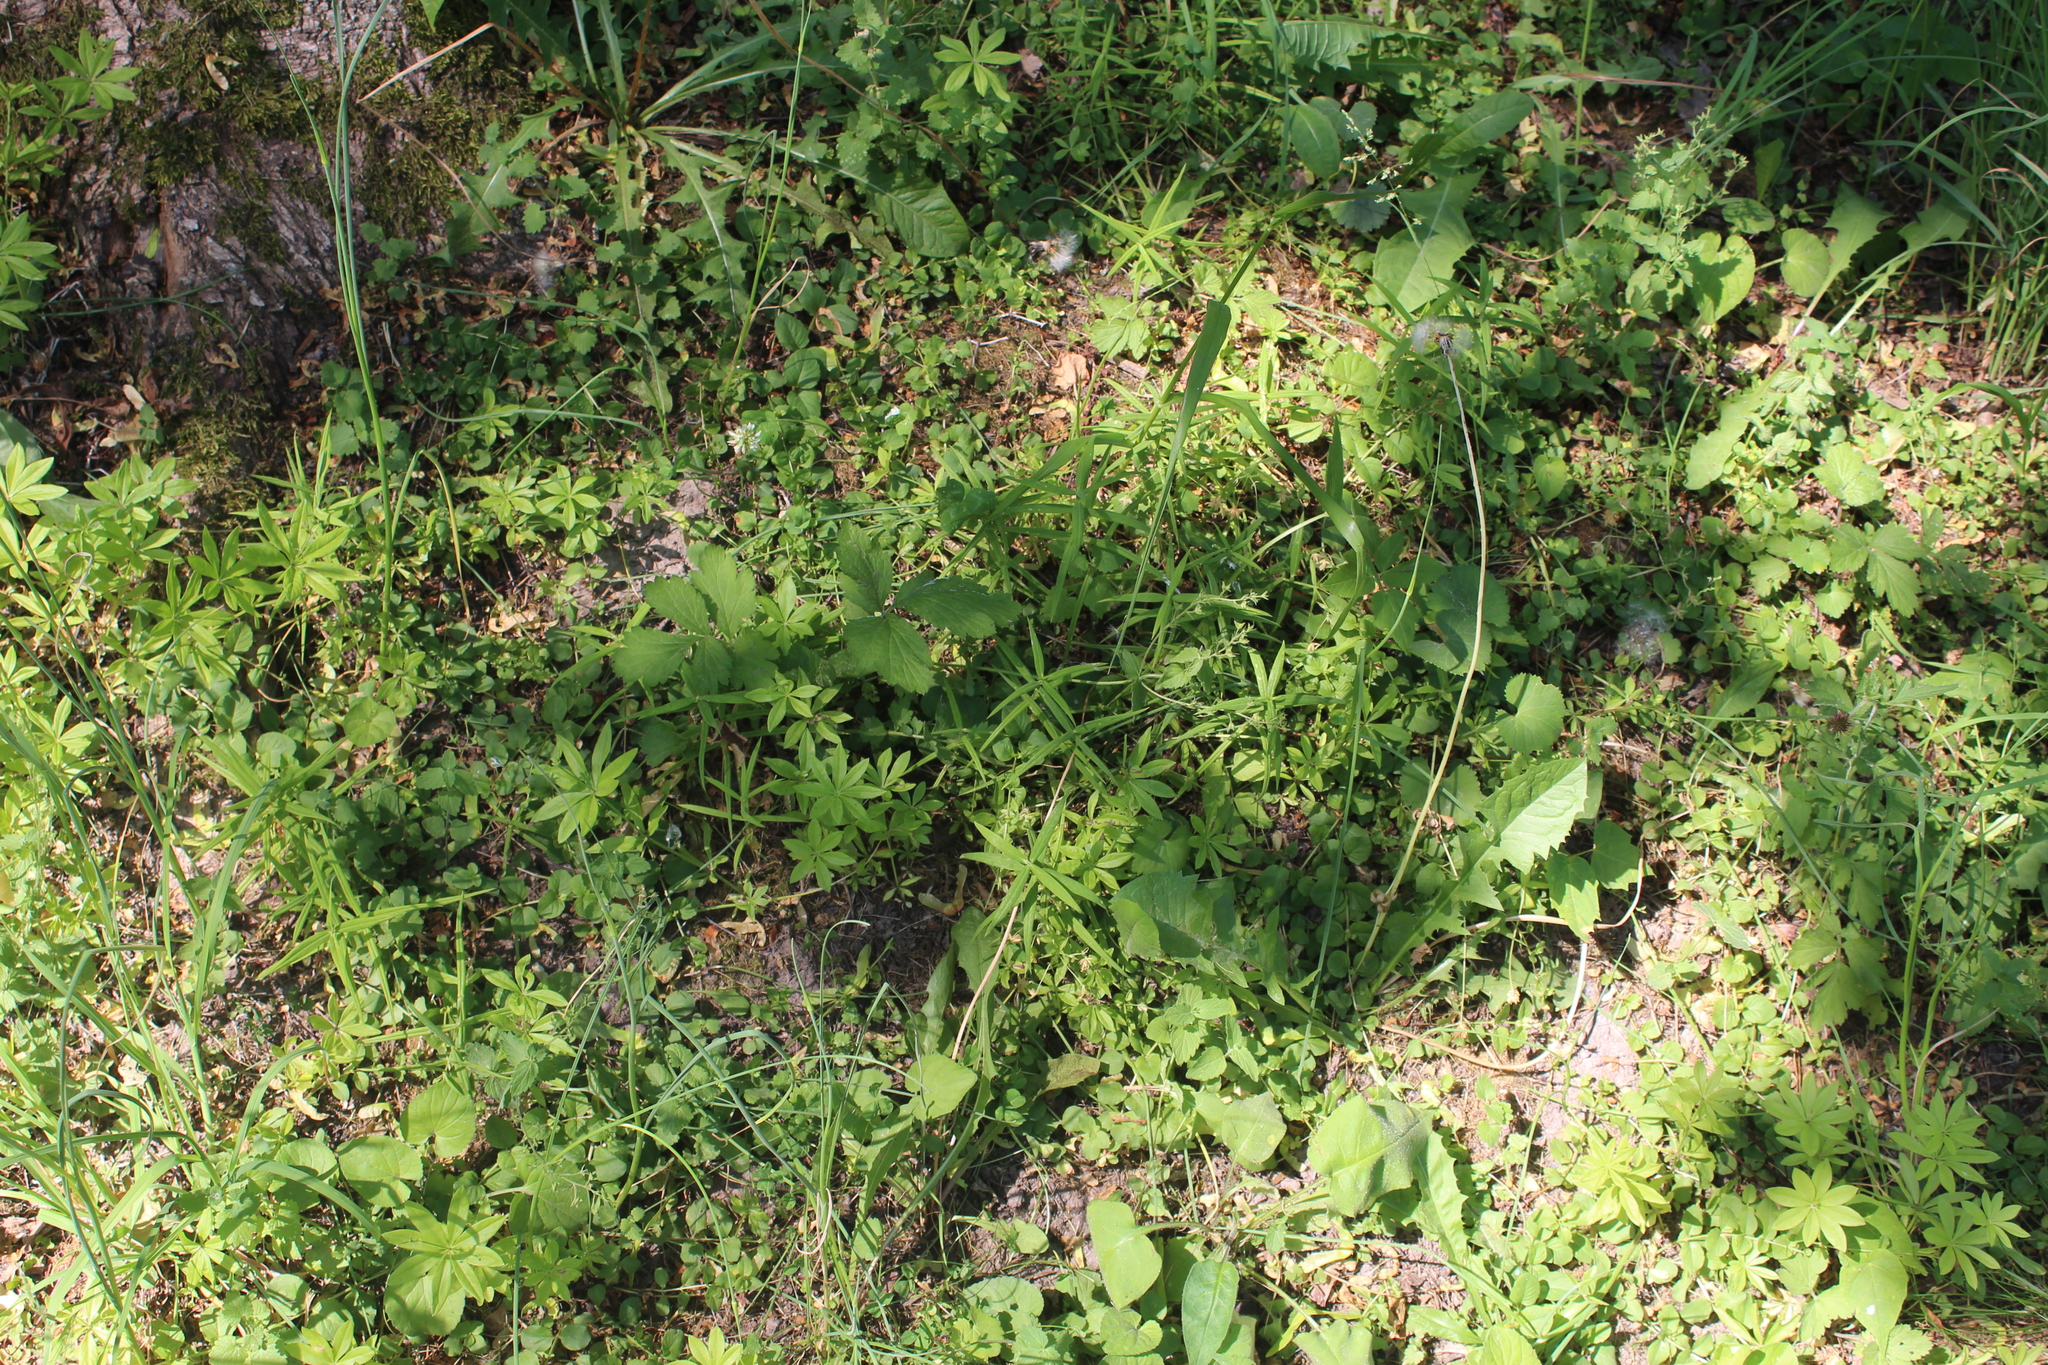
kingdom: Plantae
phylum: Tracheophyta
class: Magnoliopsida
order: Gentianales
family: Rubiaceae
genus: Galium
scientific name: Galium odoratum
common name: Sweet woodruff
